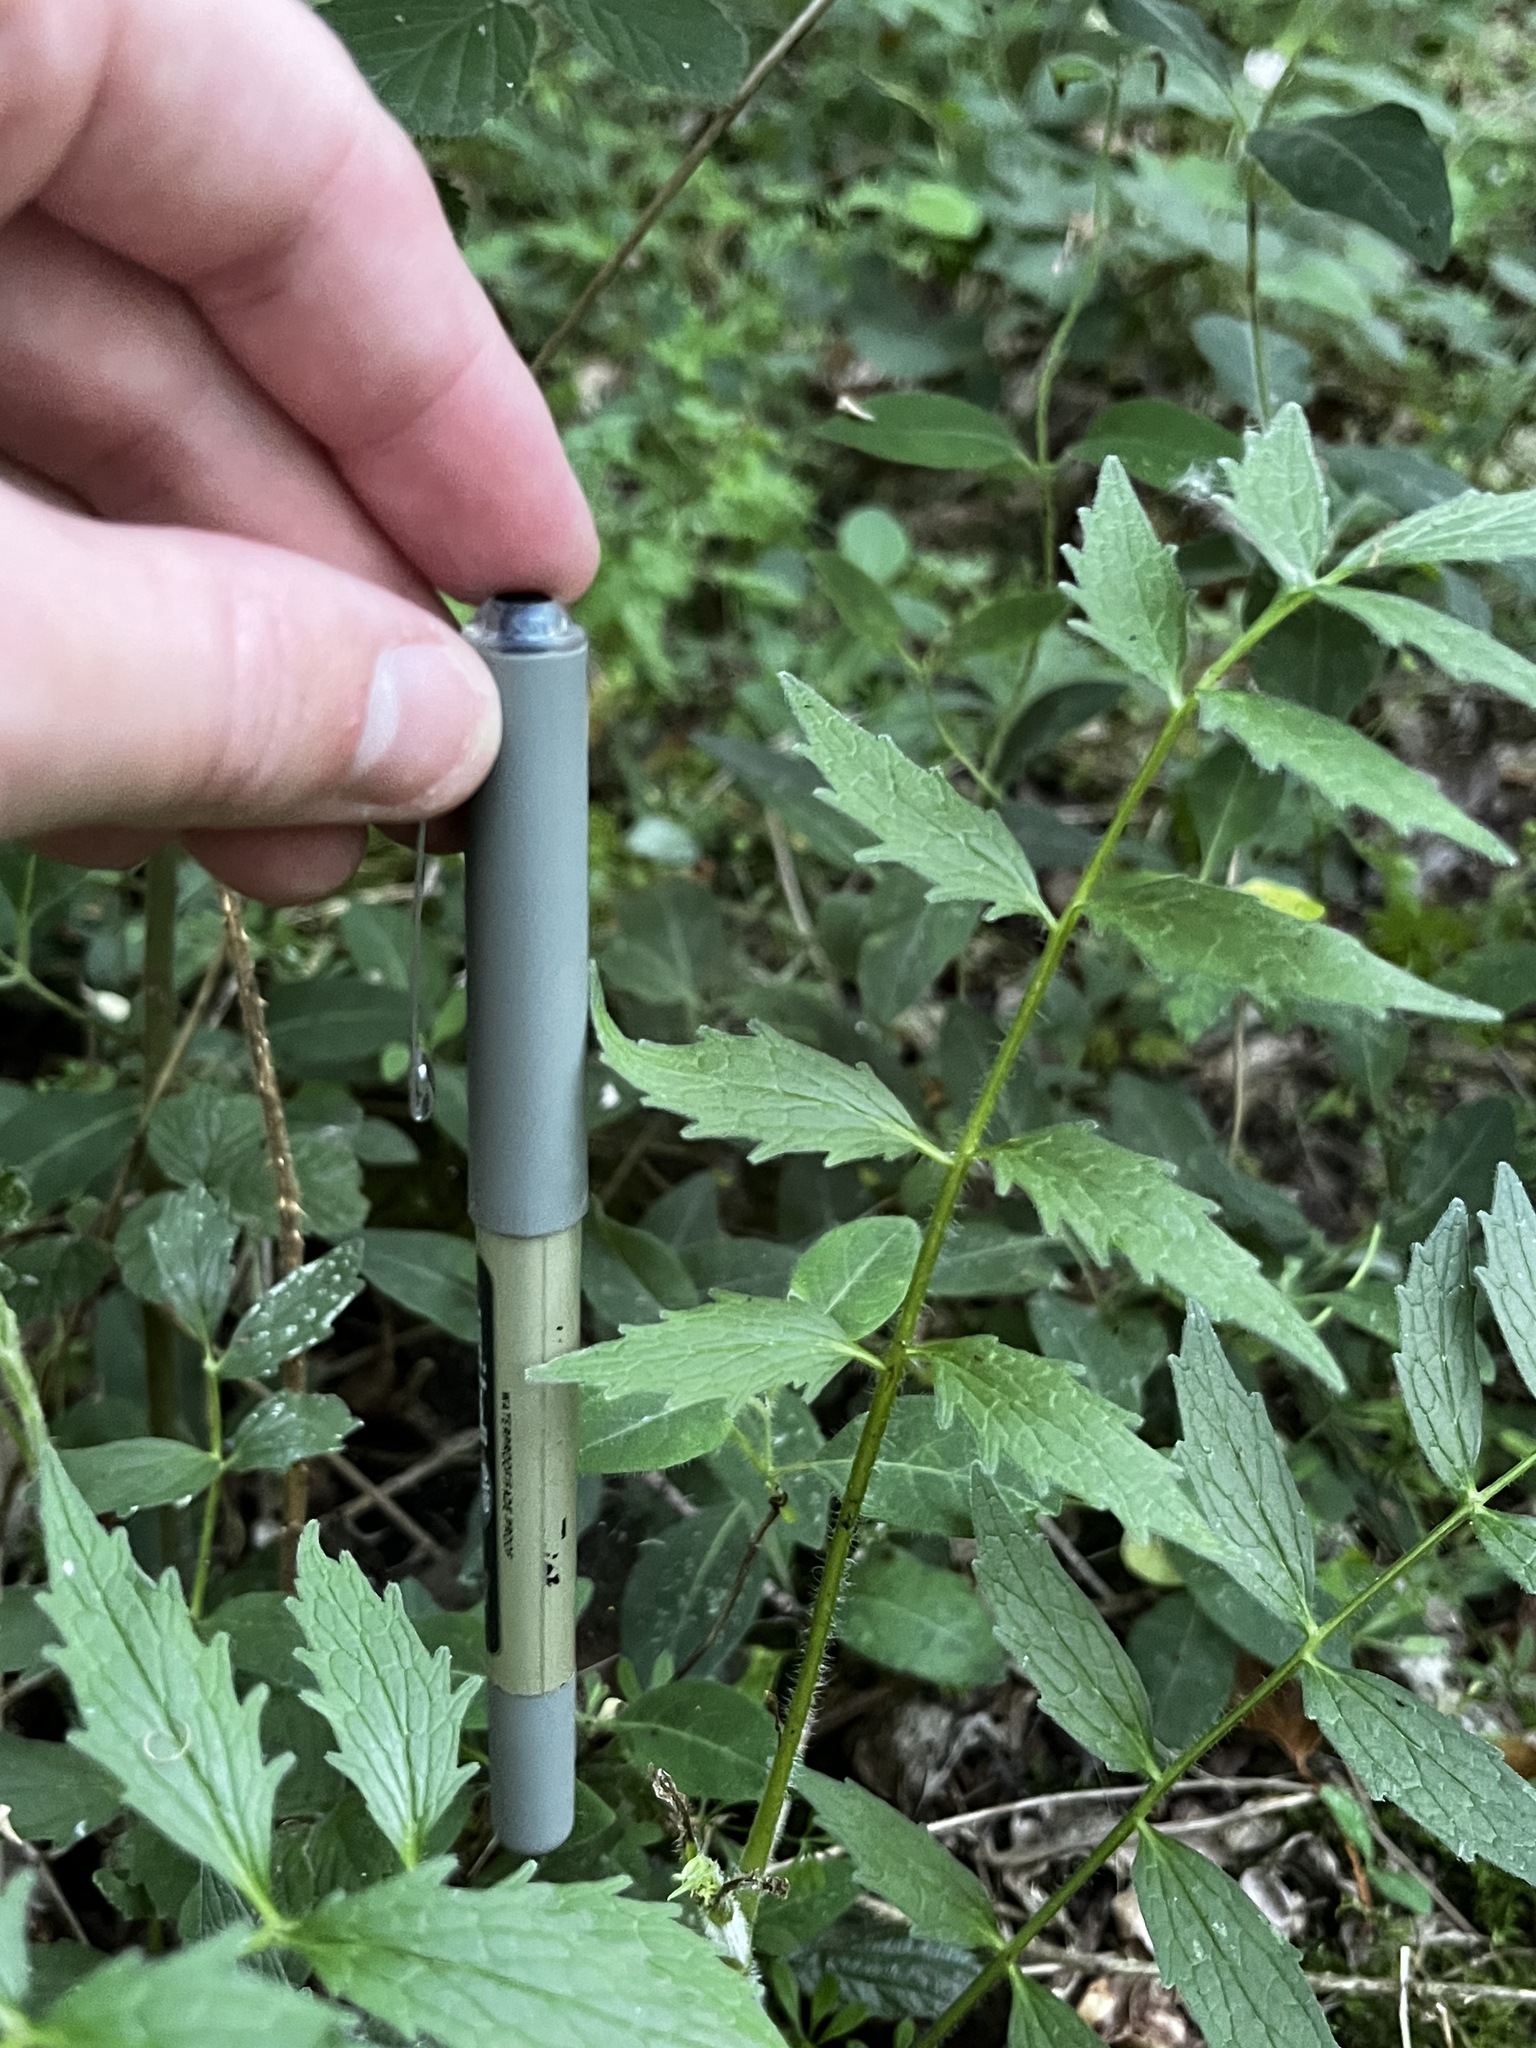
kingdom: Plantae
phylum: Tracheophyta
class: Magnoliopsida
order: Dipsacales
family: Caprifoliaceae
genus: Valeriana
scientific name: Valeriana officinalis
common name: Common valerian
